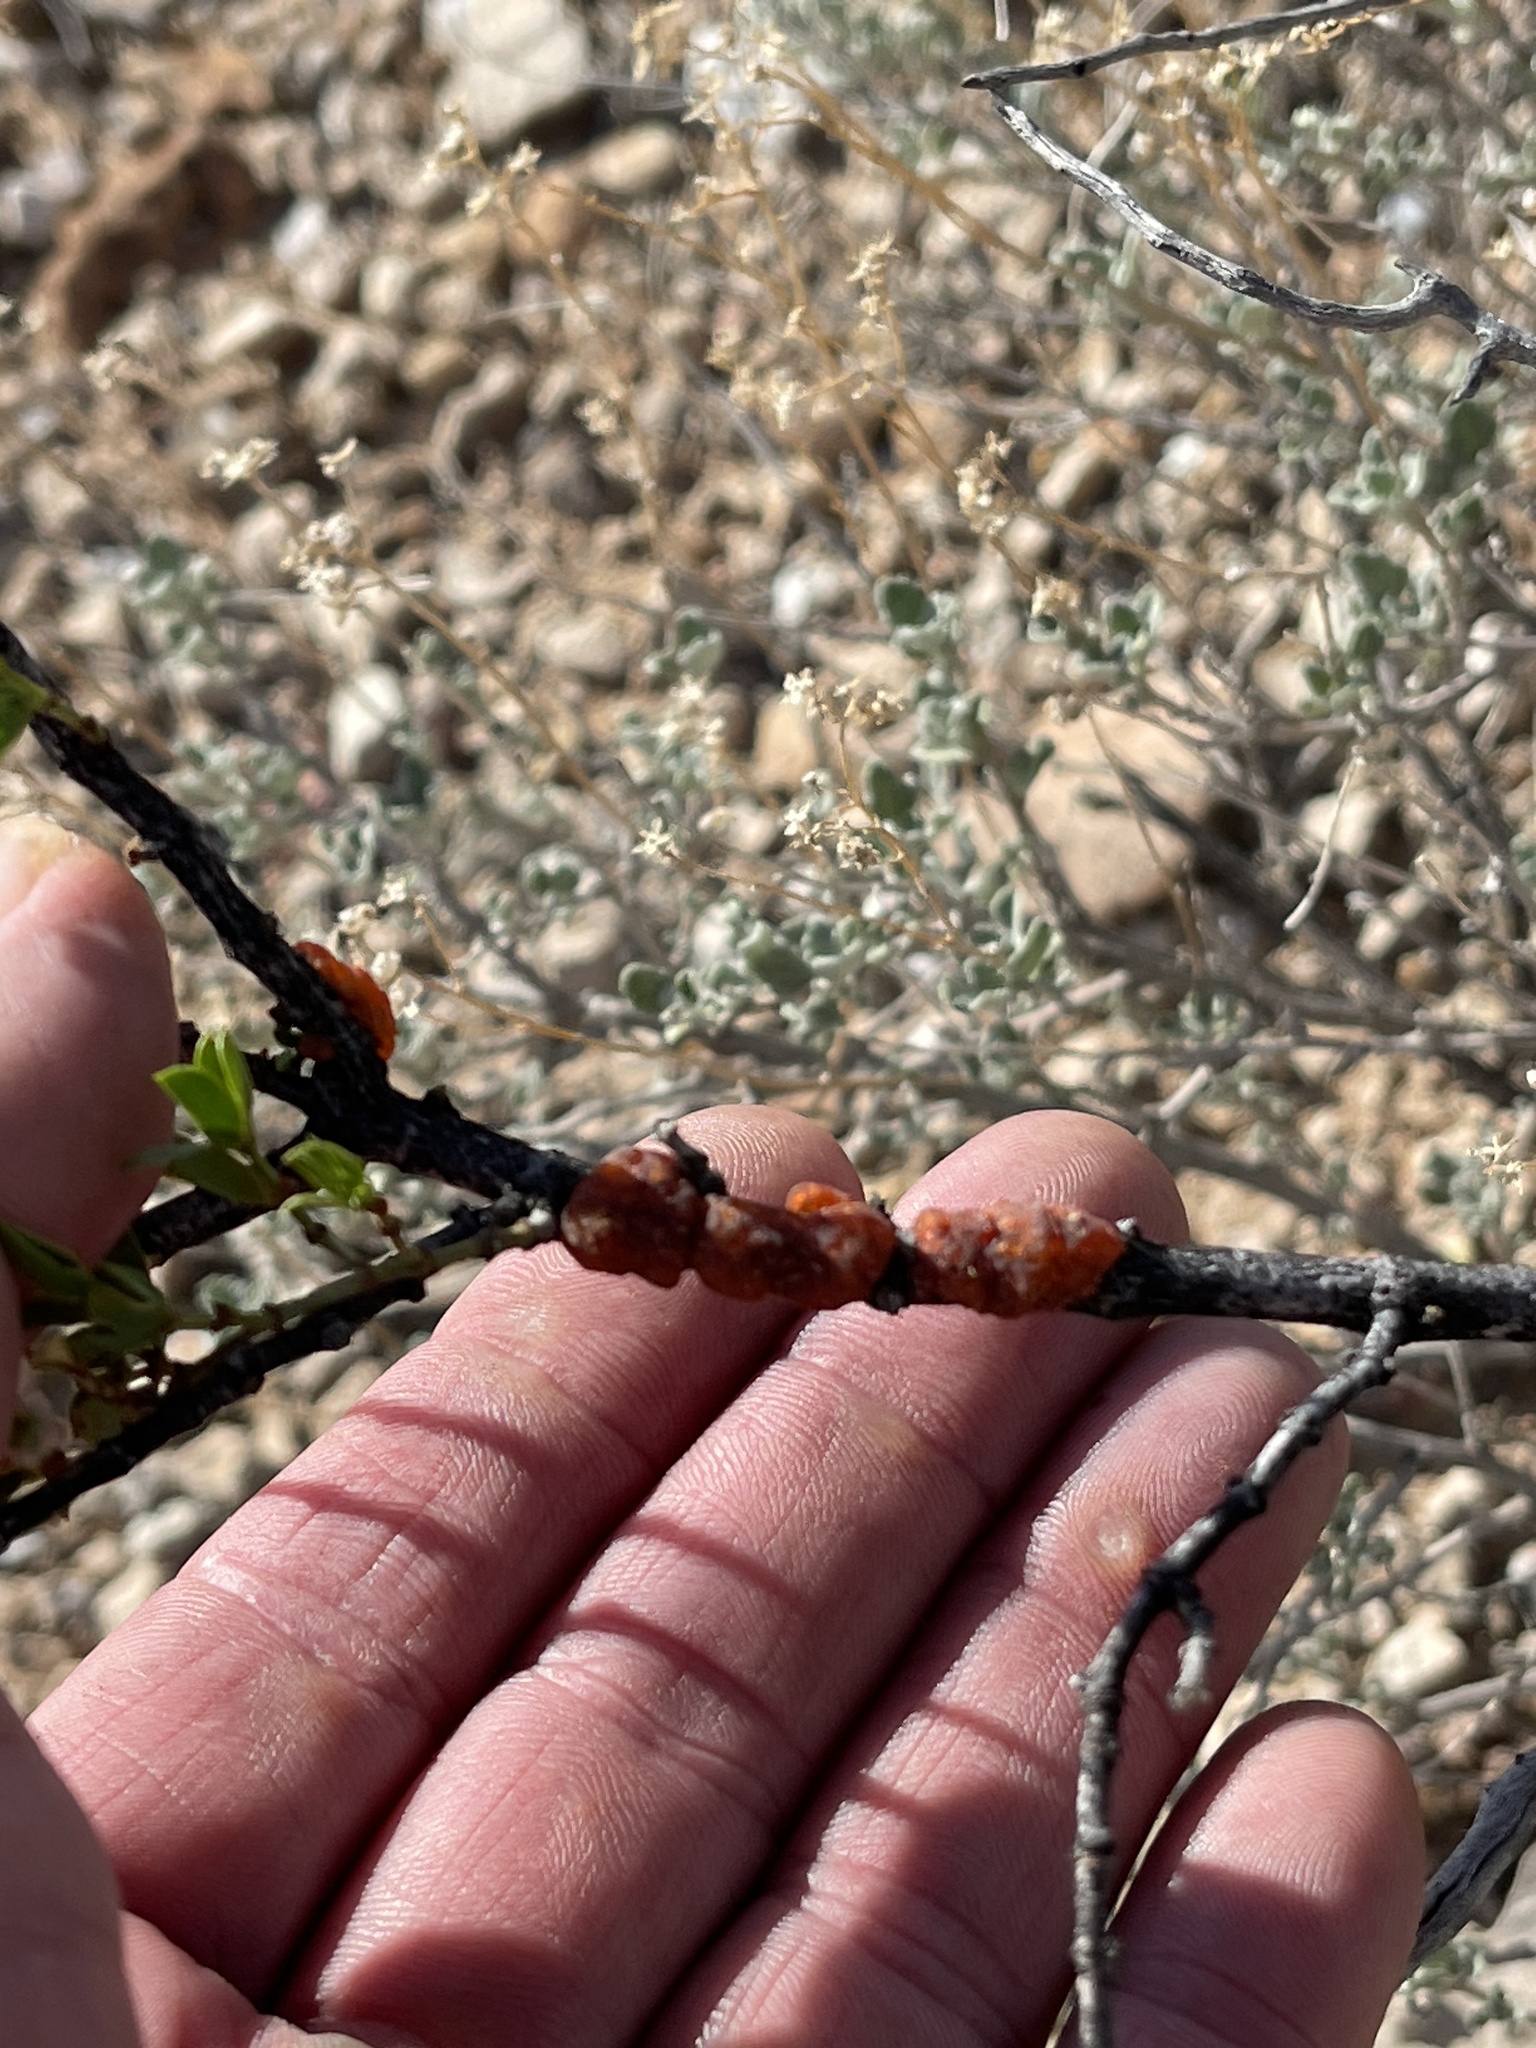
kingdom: Animalia
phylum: Arthropoda
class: Insecta
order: Hemiptera
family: Kerriidae
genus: Tachardiella
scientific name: Tachardiella larreae
